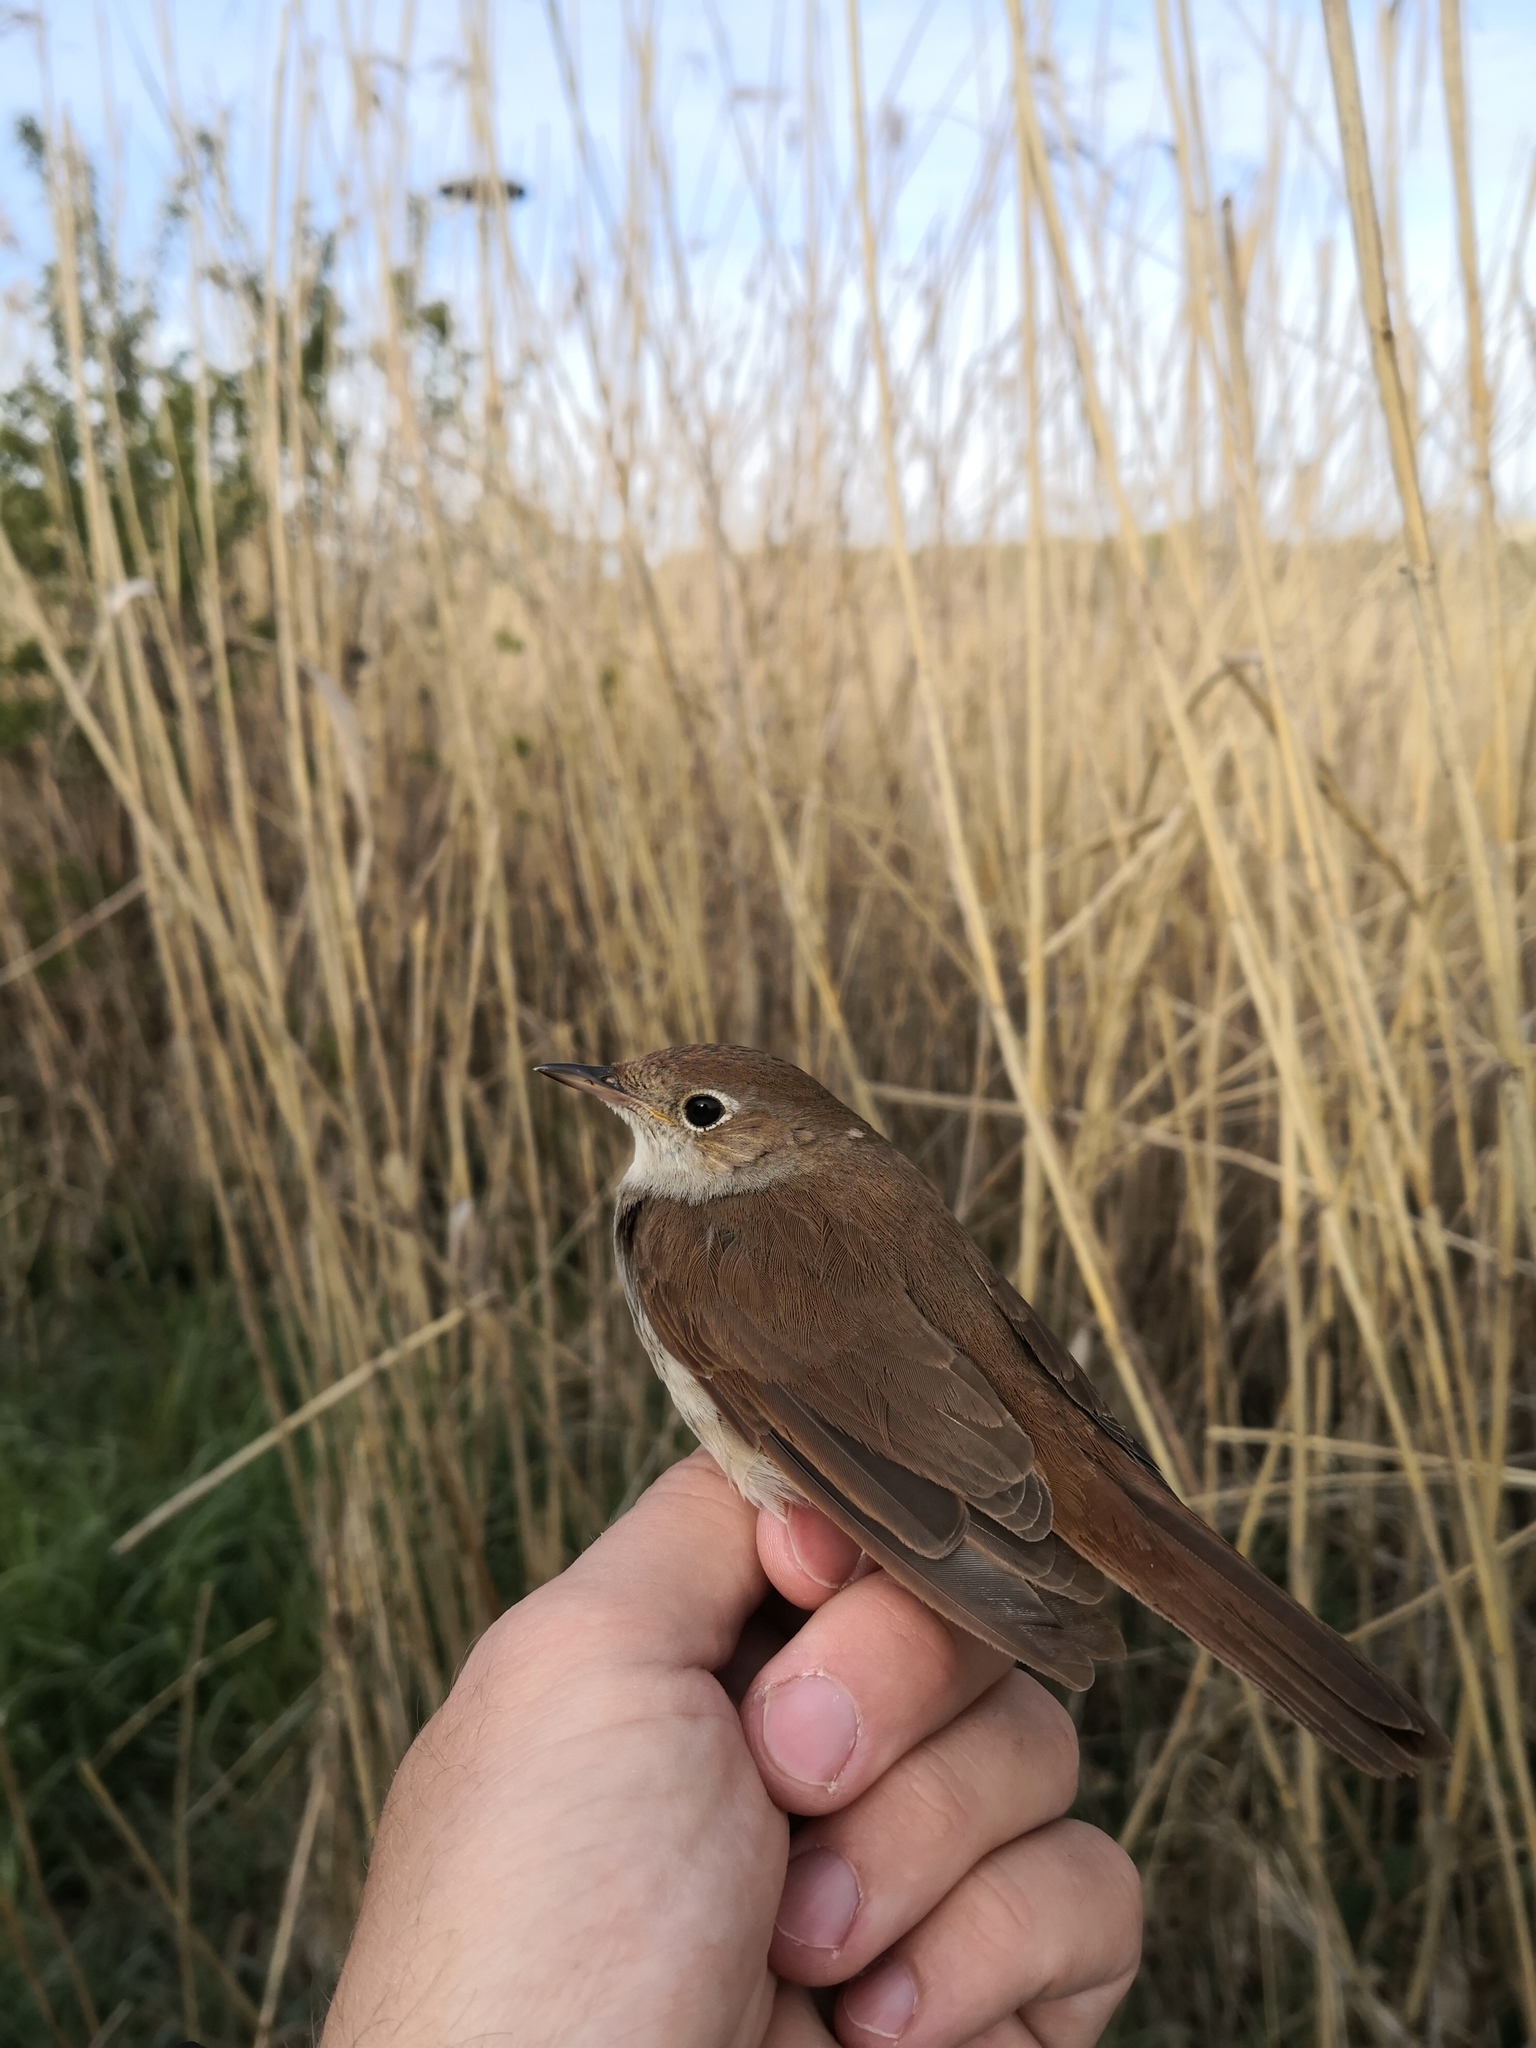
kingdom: Animalia
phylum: Chordata
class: Aves
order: Passeriformes
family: Muscicapidae
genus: Luscinia
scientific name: Luscinia megarhynchos
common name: Common nightingale
